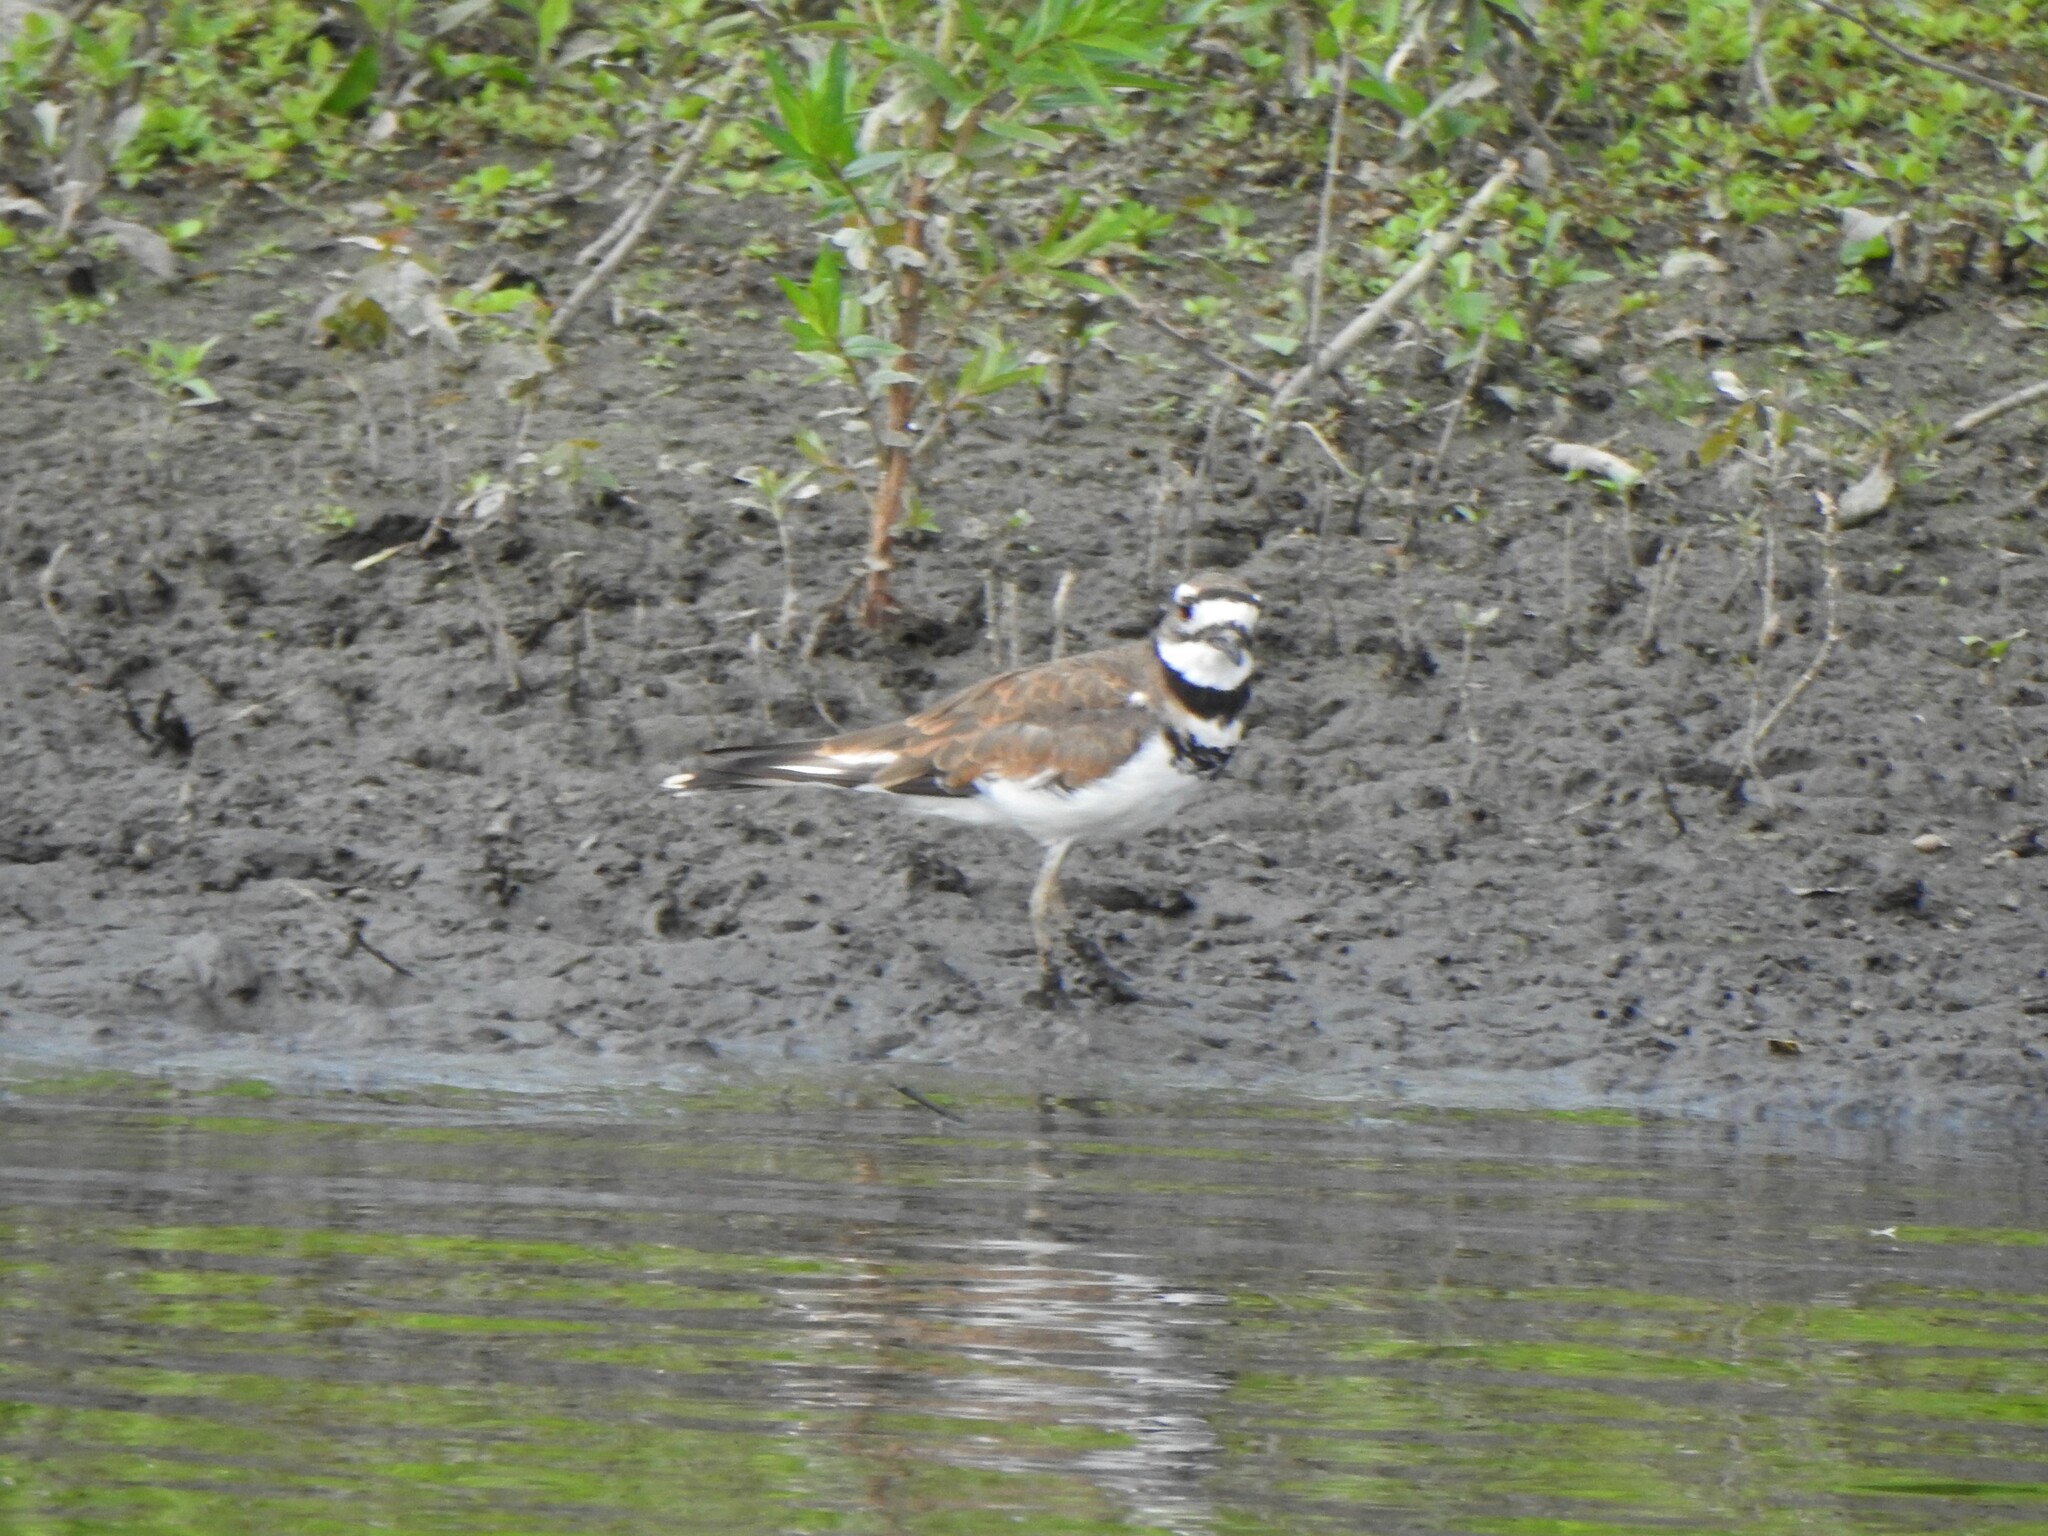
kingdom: Animalia
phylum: Chordata
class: Aves
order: Charadriiformes
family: Charadriidae
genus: Charadrius
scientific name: Charadrius vociferus
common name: Killdeer
